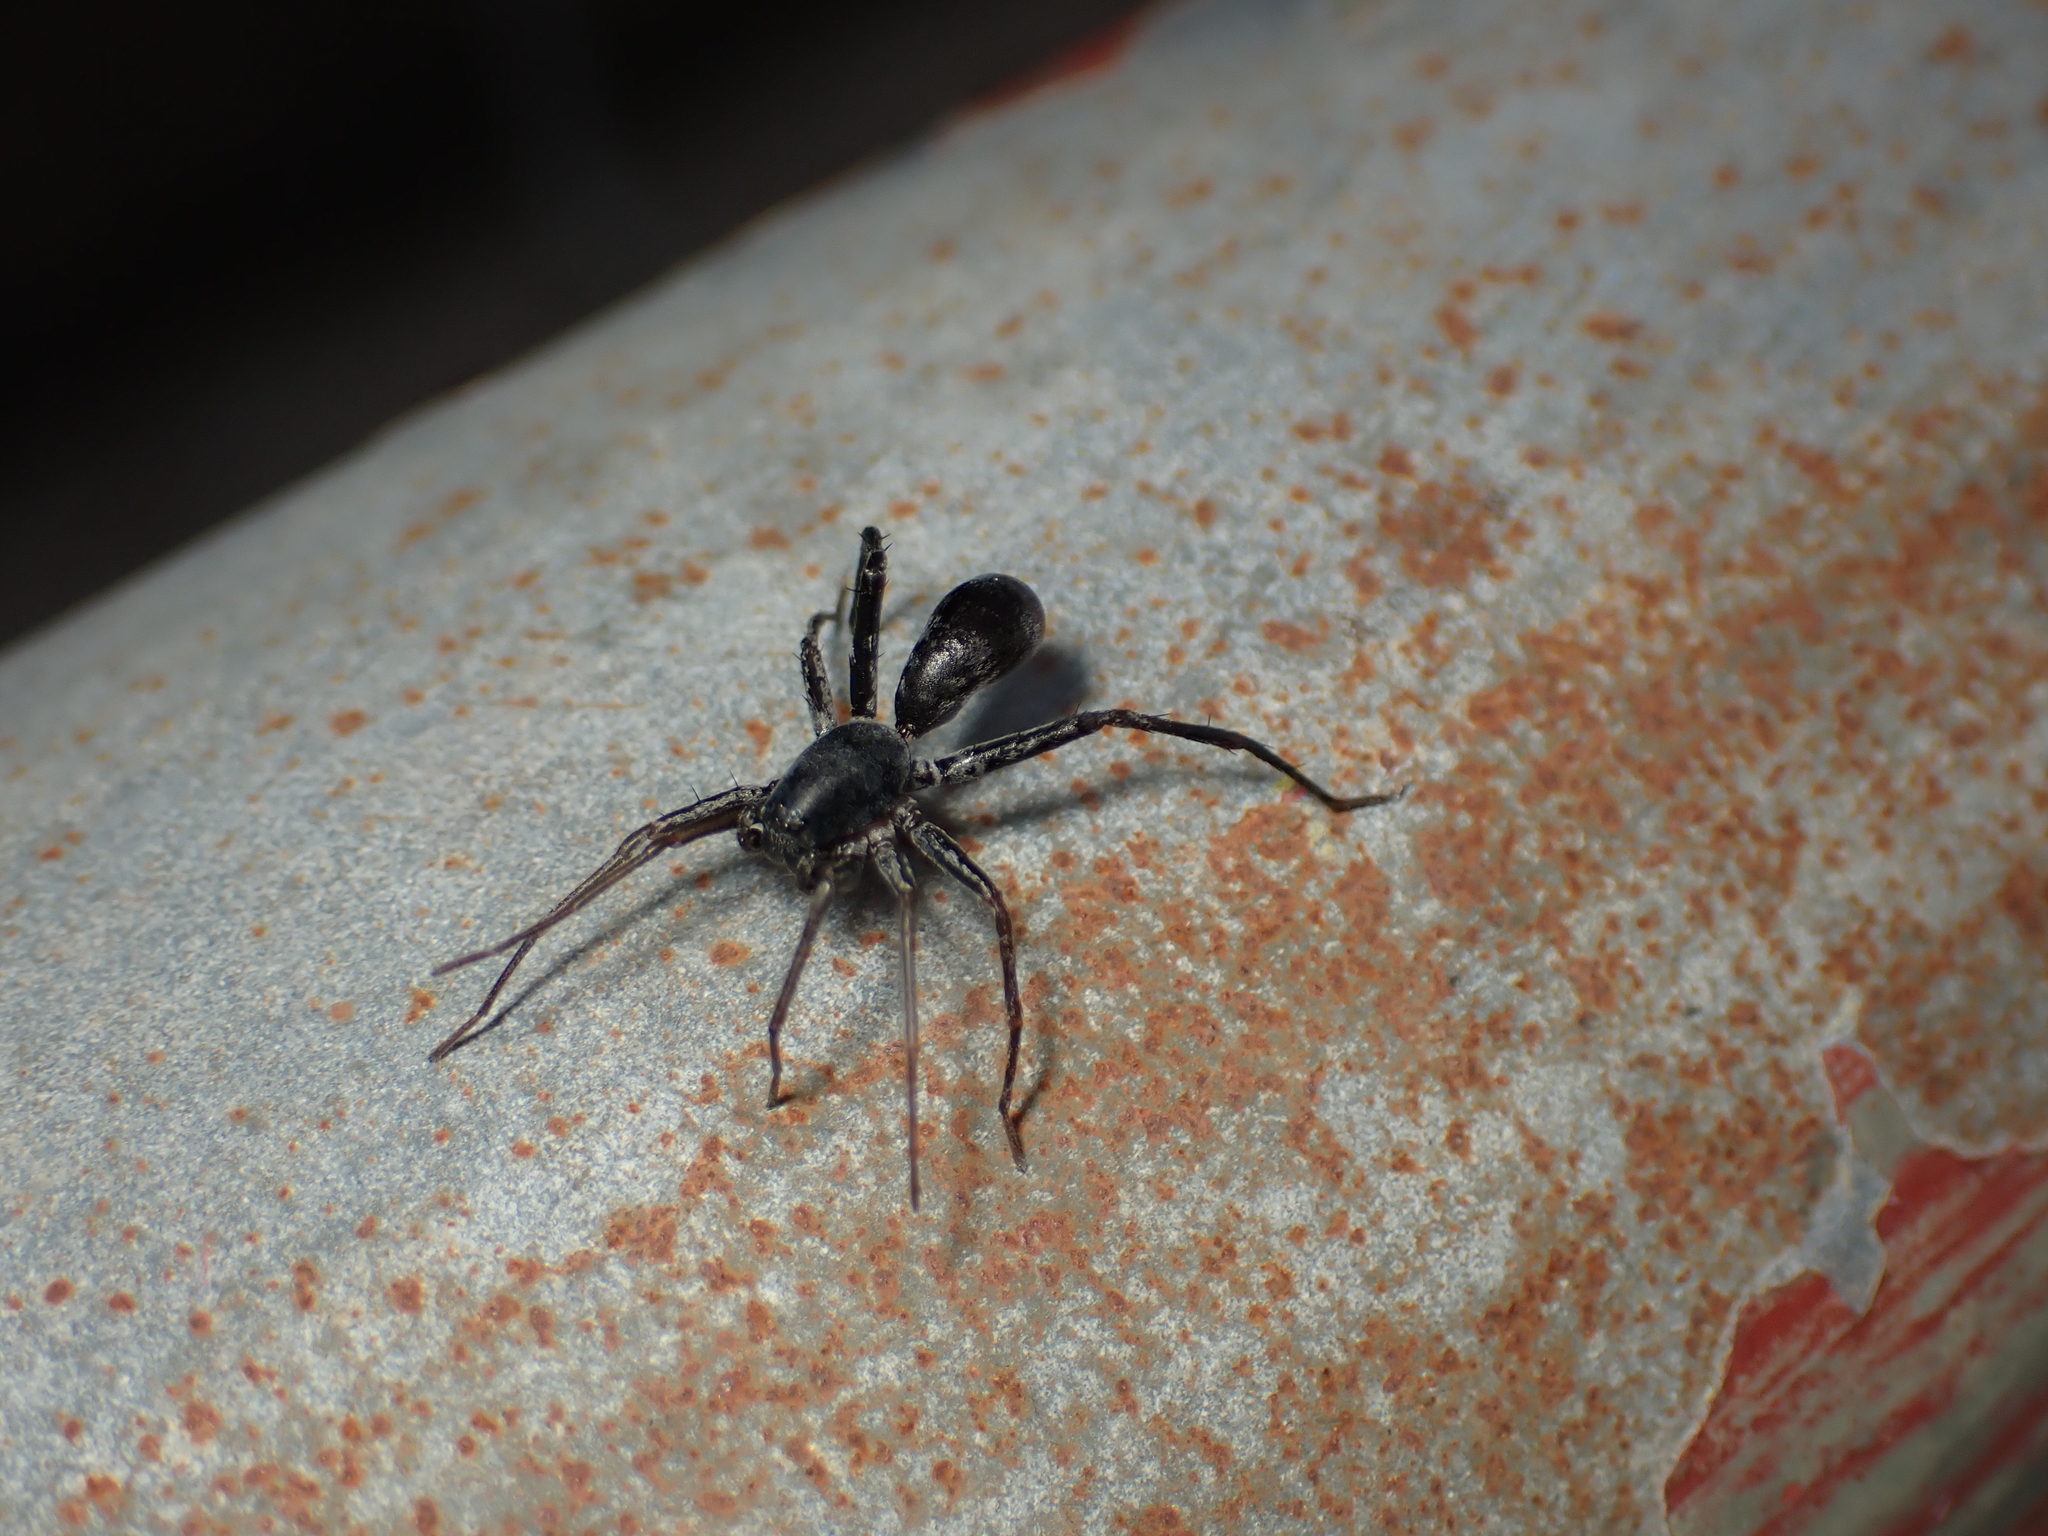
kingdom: Animalia
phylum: Arthropoda
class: Arachnida
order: Araneae
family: Corinnidae
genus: Corinnomma
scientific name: Corinnomma severum
